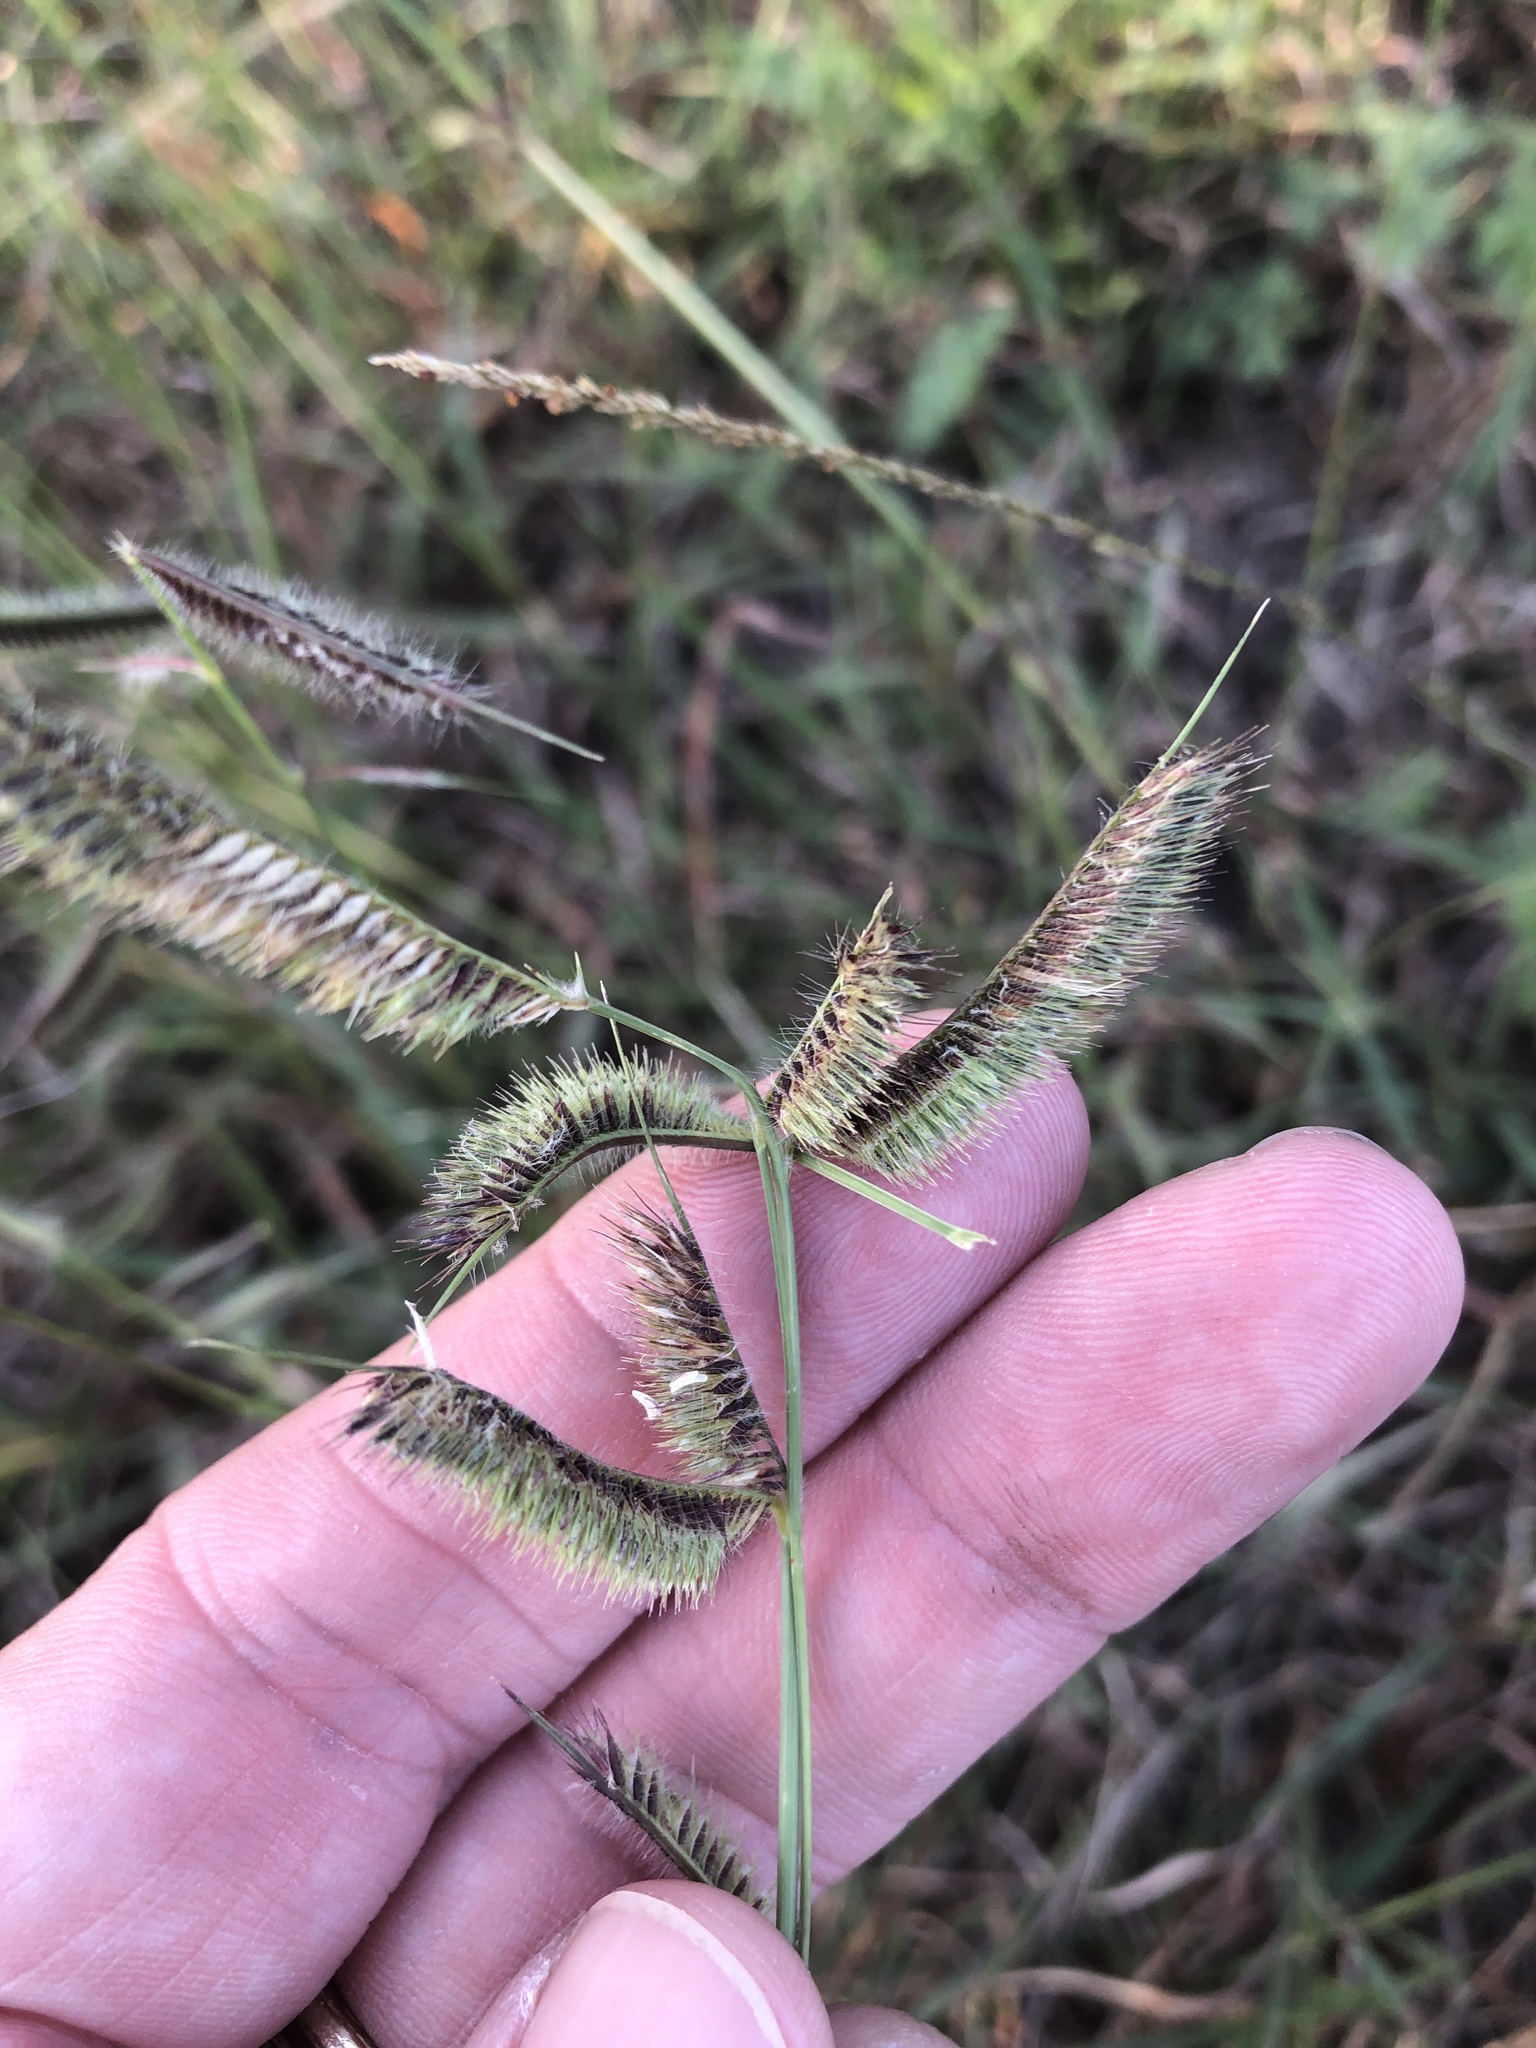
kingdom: Plantae
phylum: Tracheophyta
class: Liliopsida
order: Poales
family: Poaceae
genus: Bouteloua
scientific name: Bouteloua hirsuta
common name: Hairy grama
